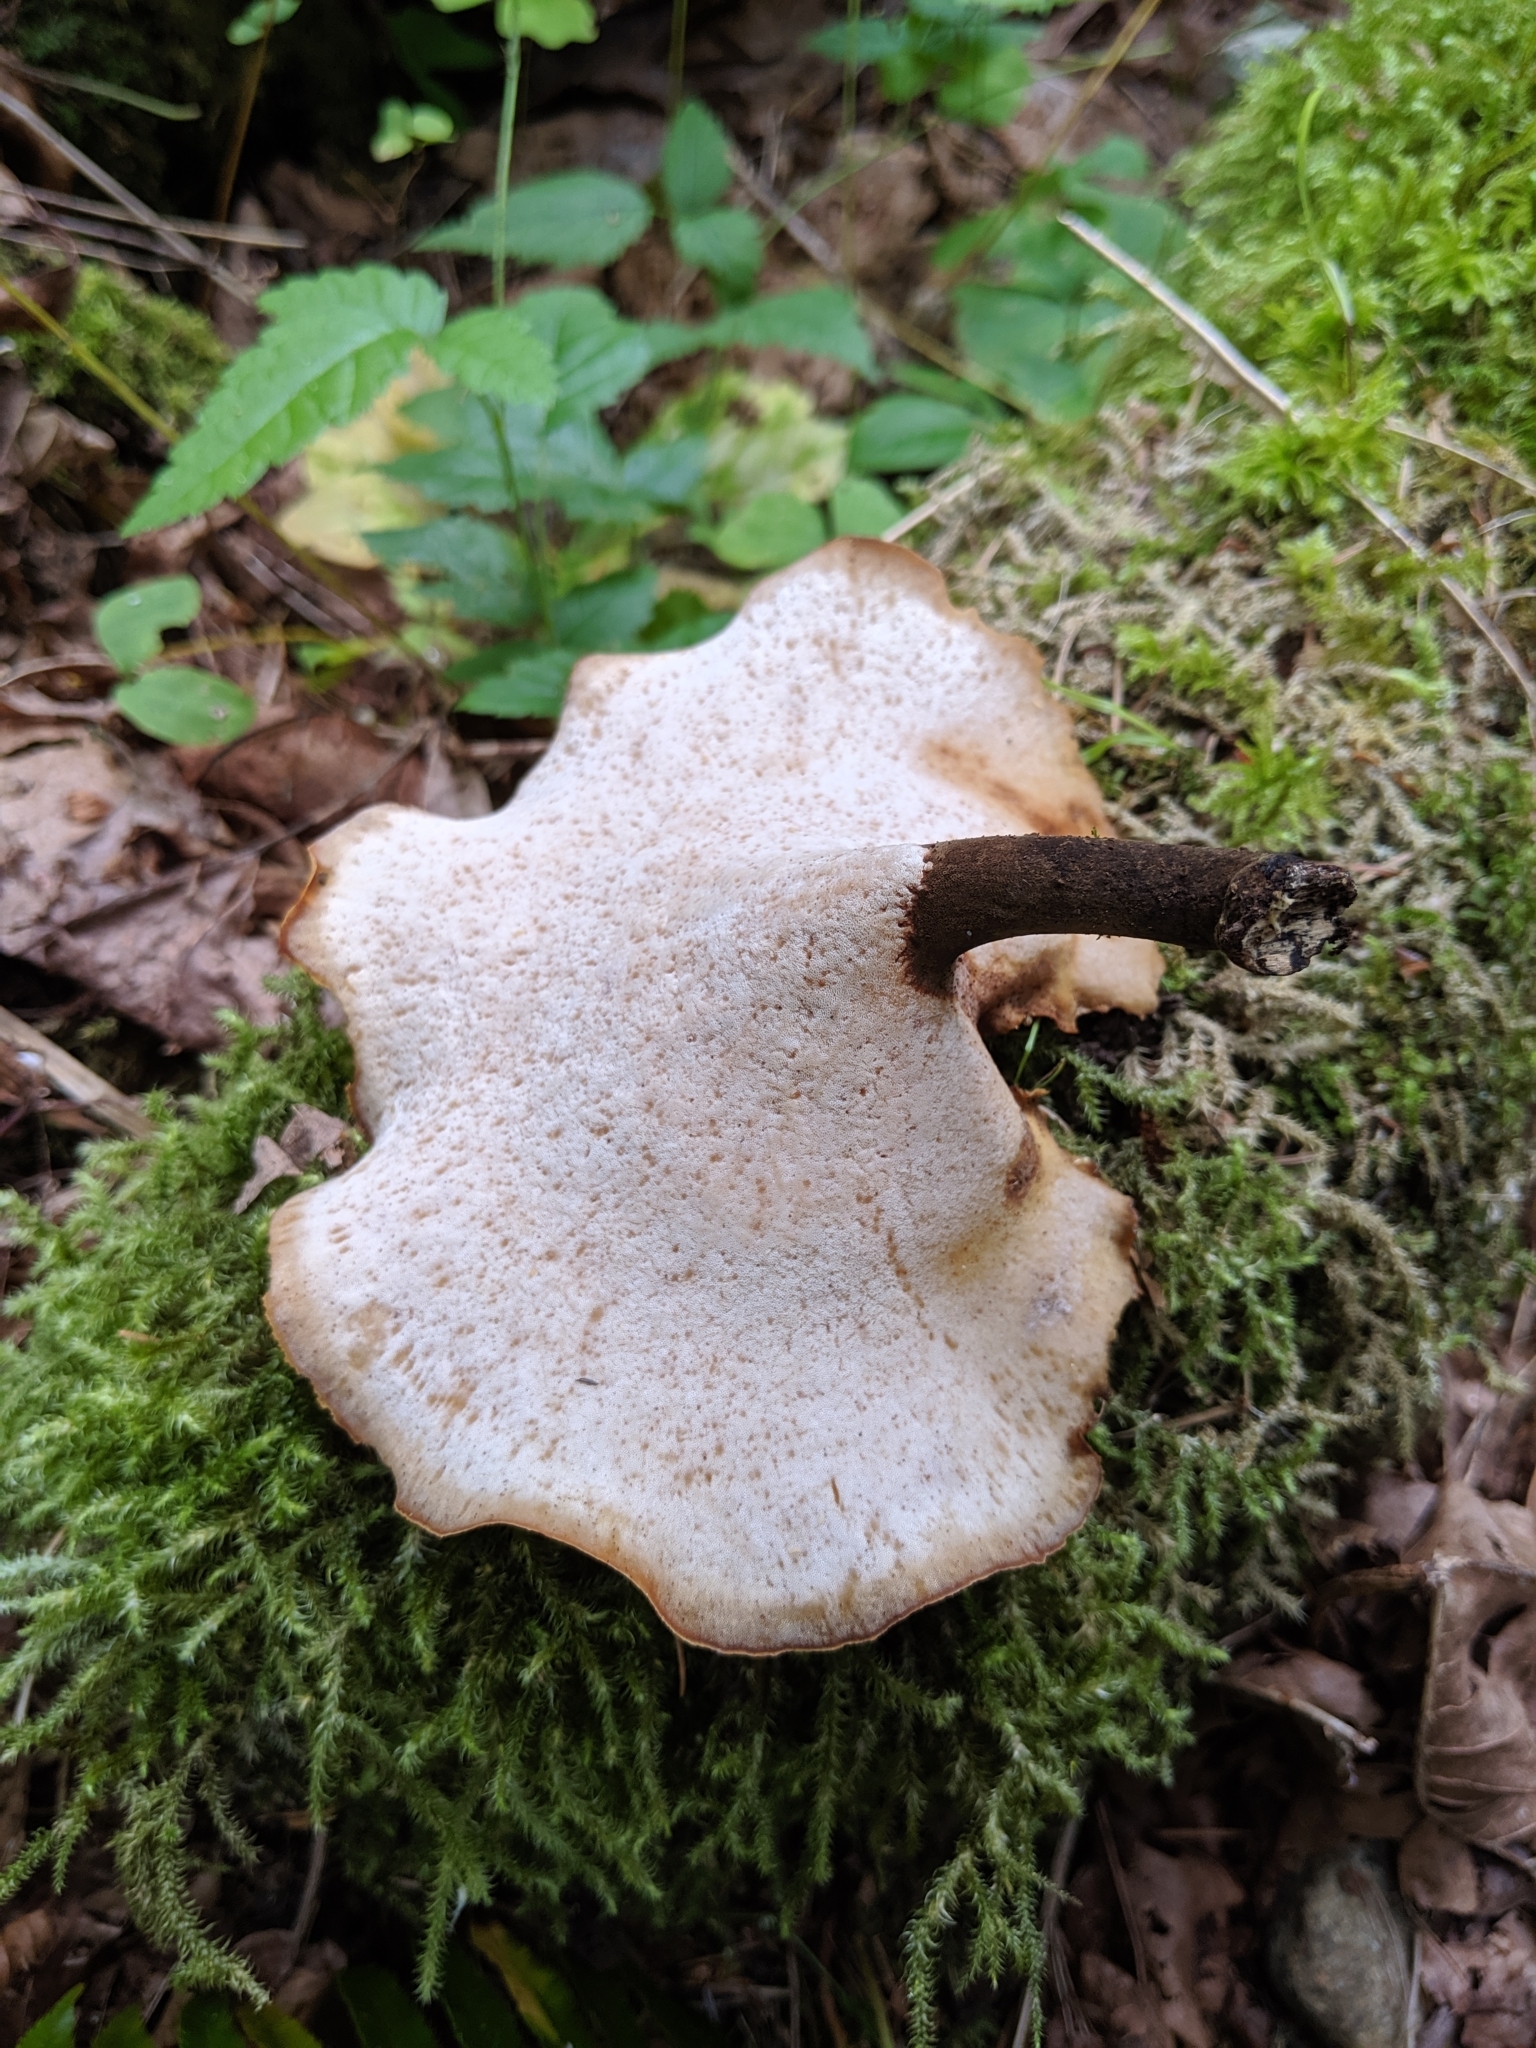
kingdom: Fungi
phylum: Basidiomycota
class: Agaricomycetes
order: Polyporales
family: Polyporaceae
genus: Picipes
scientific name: Picipes badius
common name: Bay polypore
